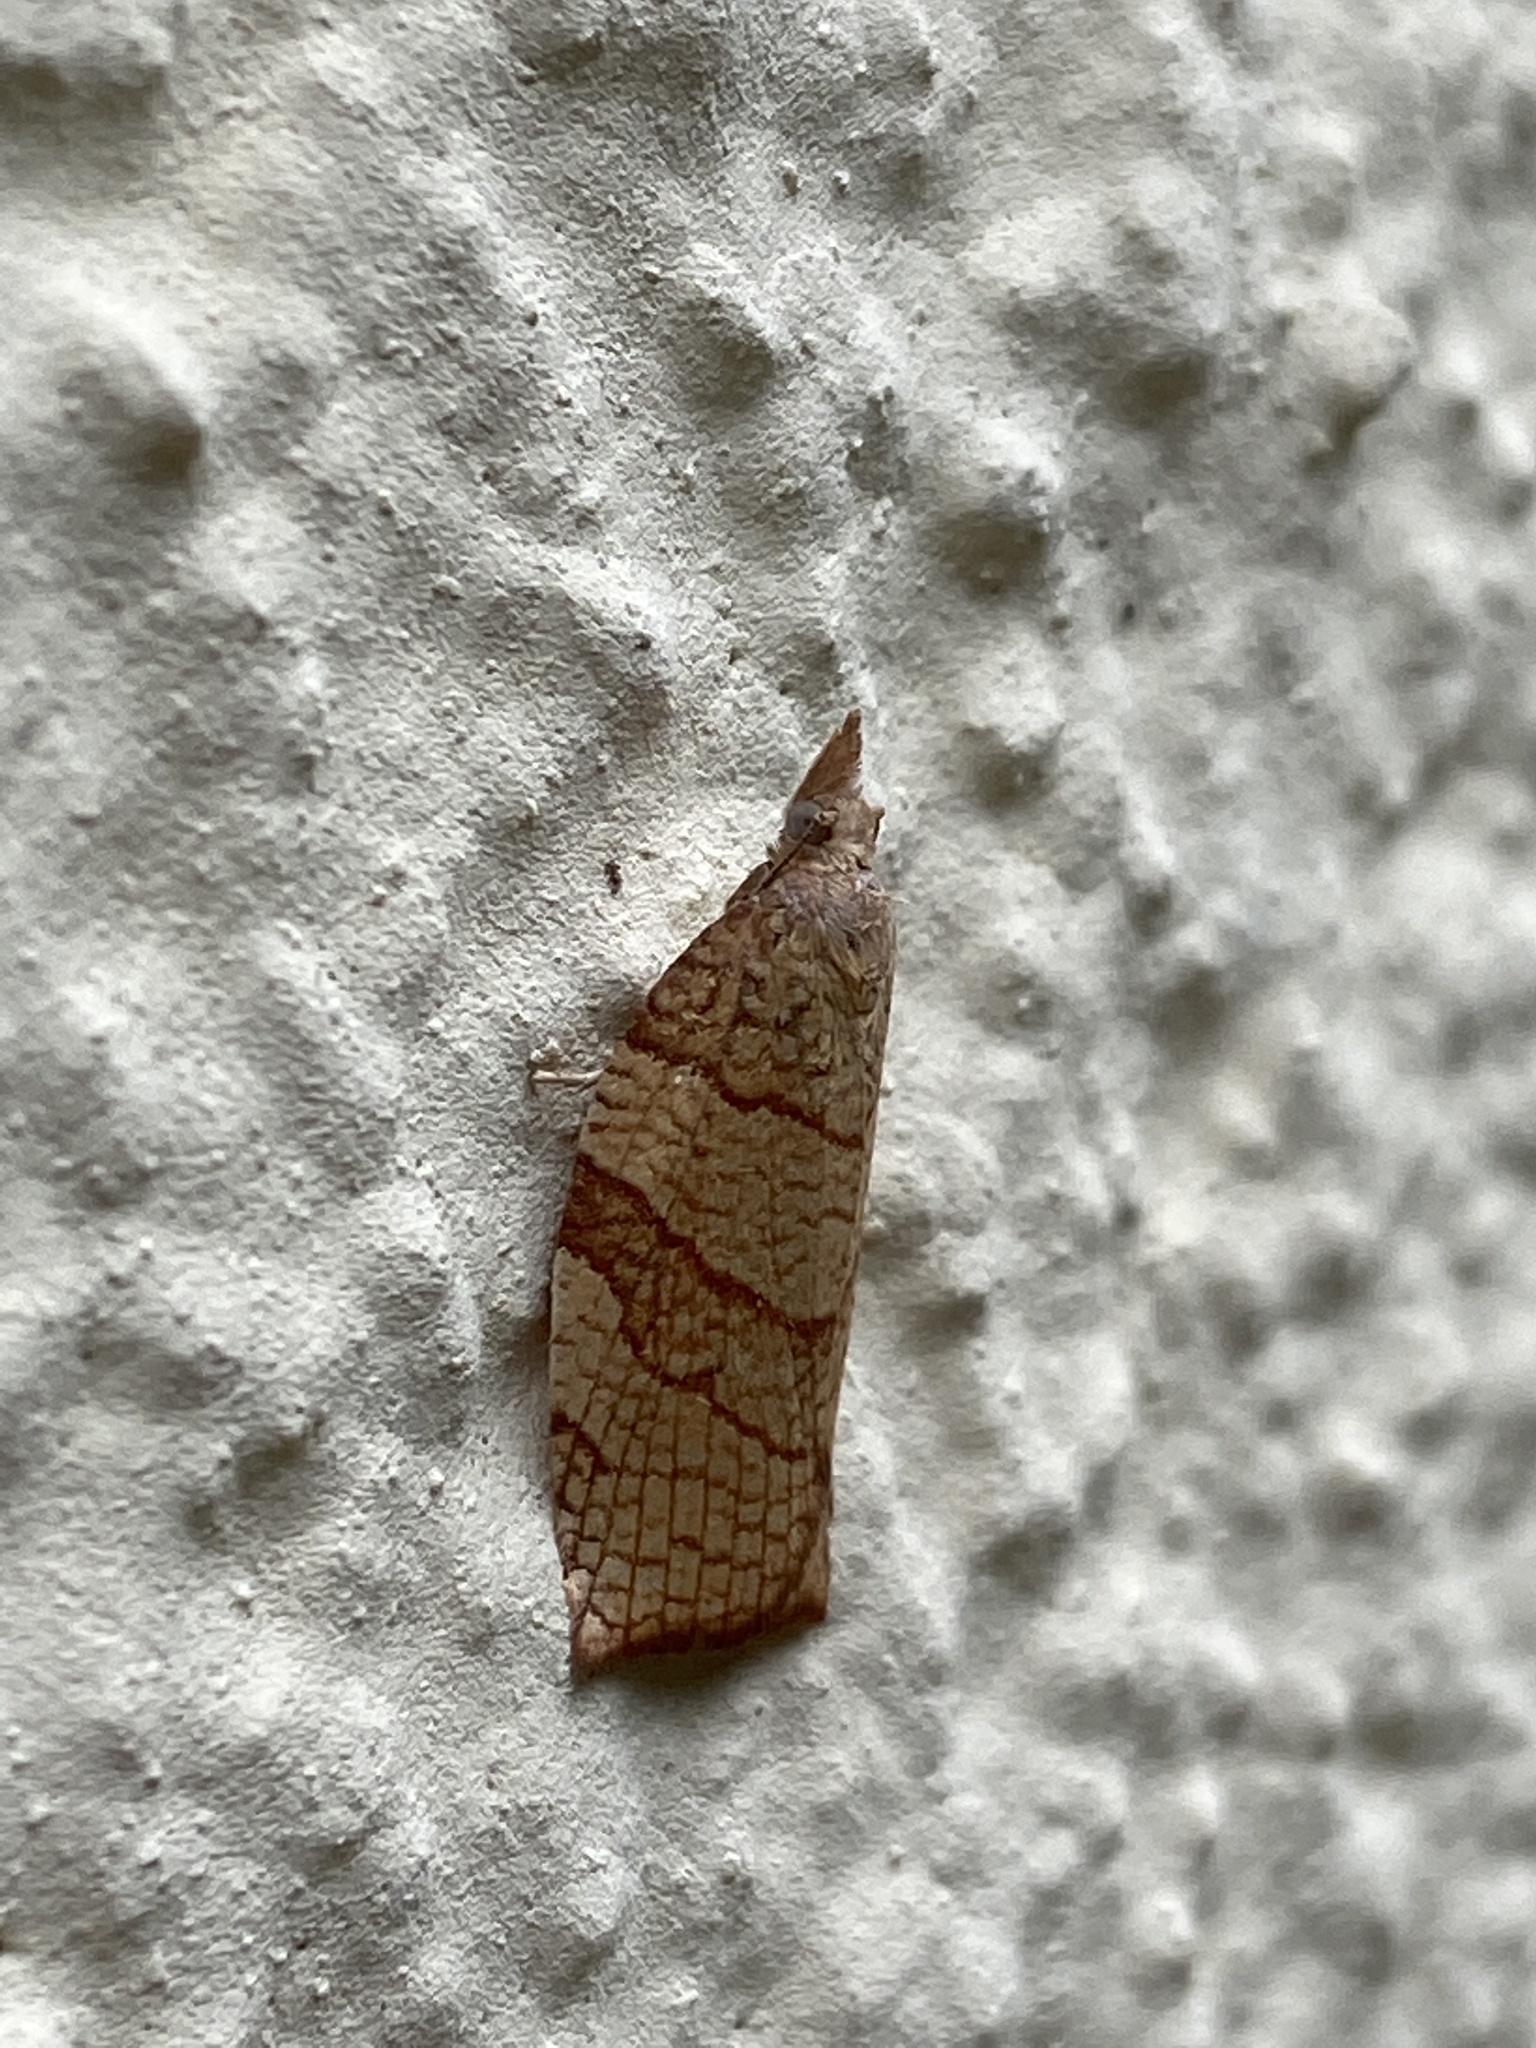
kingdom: Animalia
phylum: Arthropoda
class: Insecta
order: Lepidoptera
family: Tortricidae
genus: Pandemis
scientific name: Pandemis corylana
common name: Chequered fruit-tree tortrix
